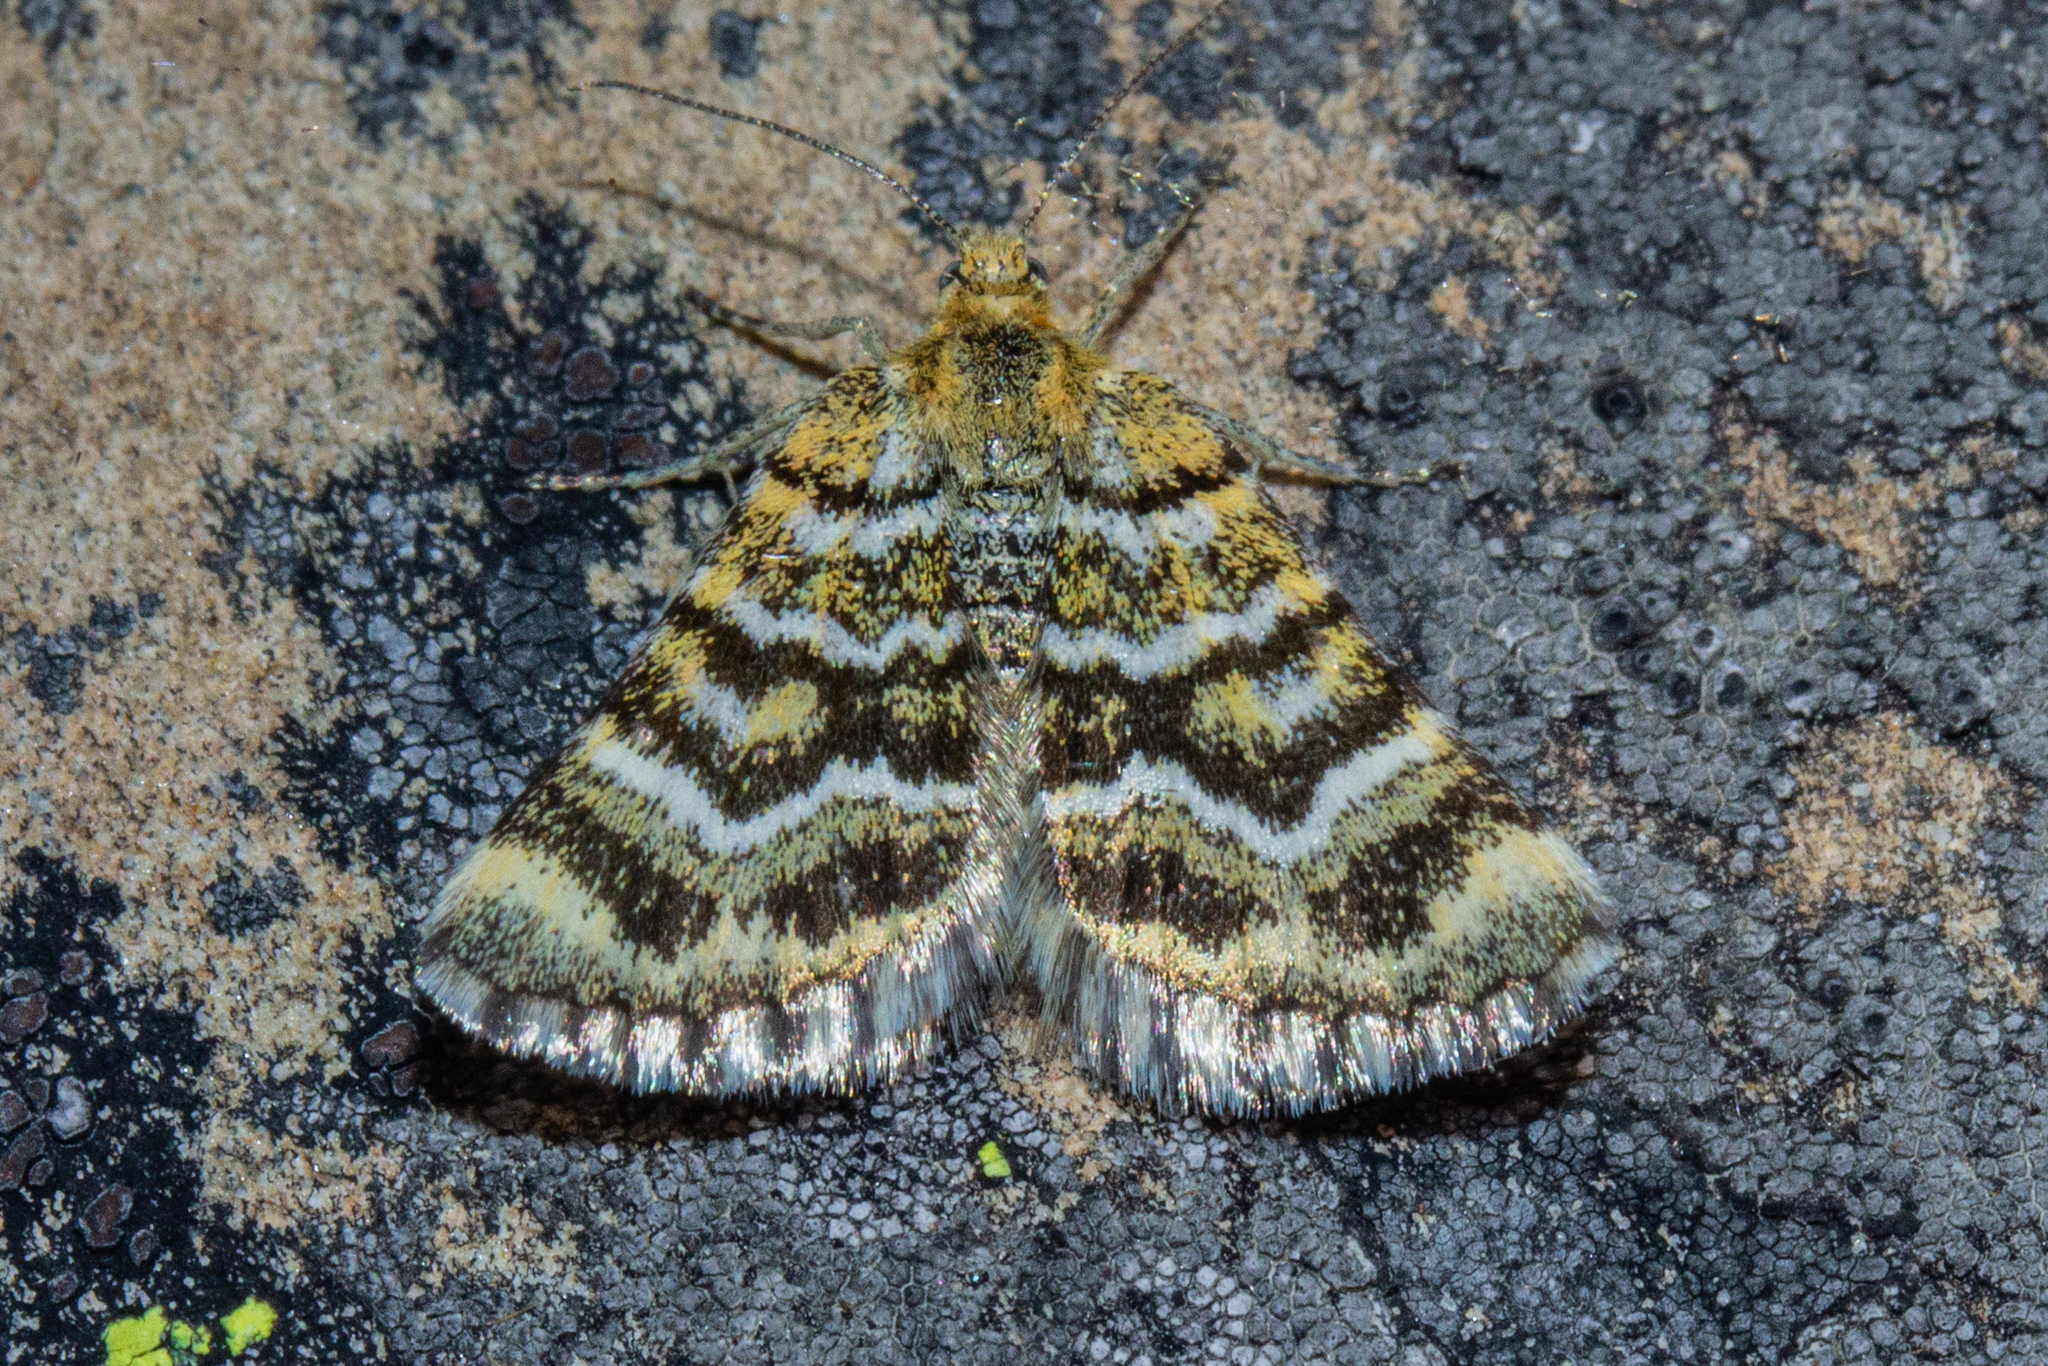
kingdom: Animalia
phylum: Arthropoda
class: Insecta
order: Lepidoptera
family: Geometridae
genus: Notoreas
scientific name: Notoreas paradelpha
